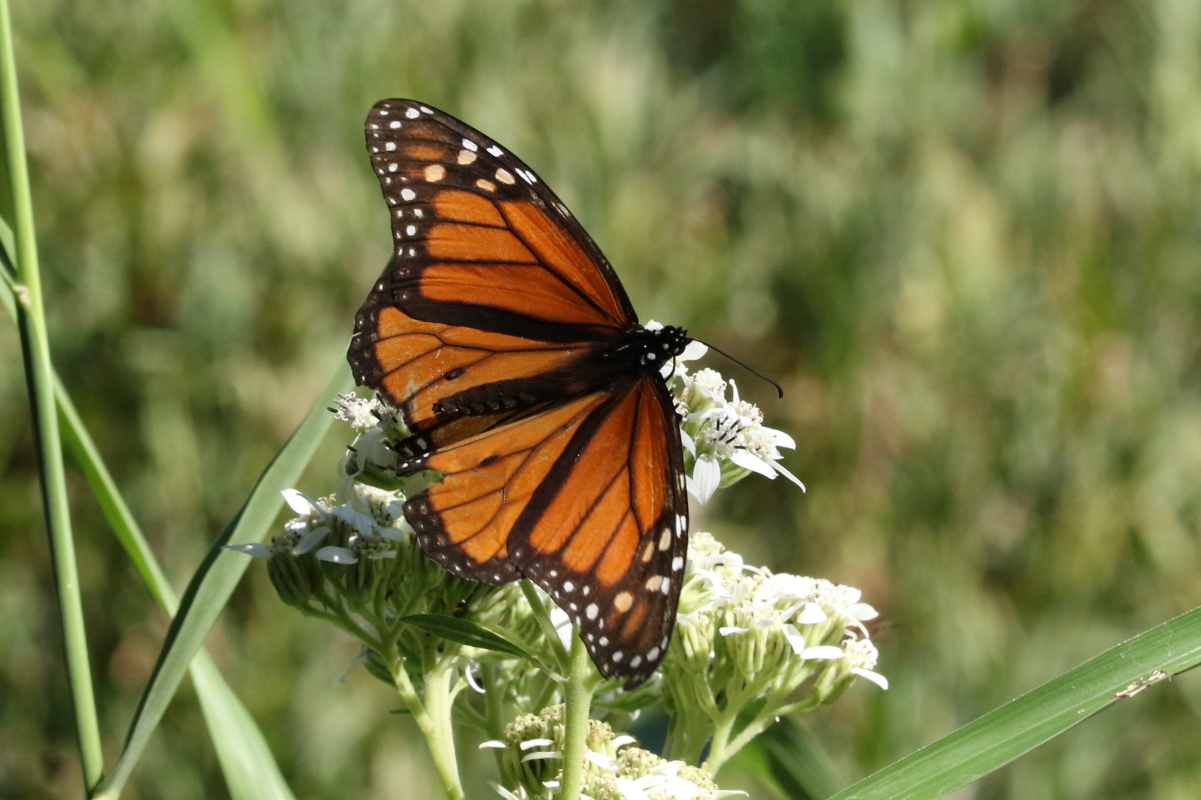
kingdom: Animalia
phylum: Arthropoda
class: Insecta
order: Lepidoptera
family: Nymphalidae
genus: Danaus
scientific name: Danaus plexippus
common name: Monarch
